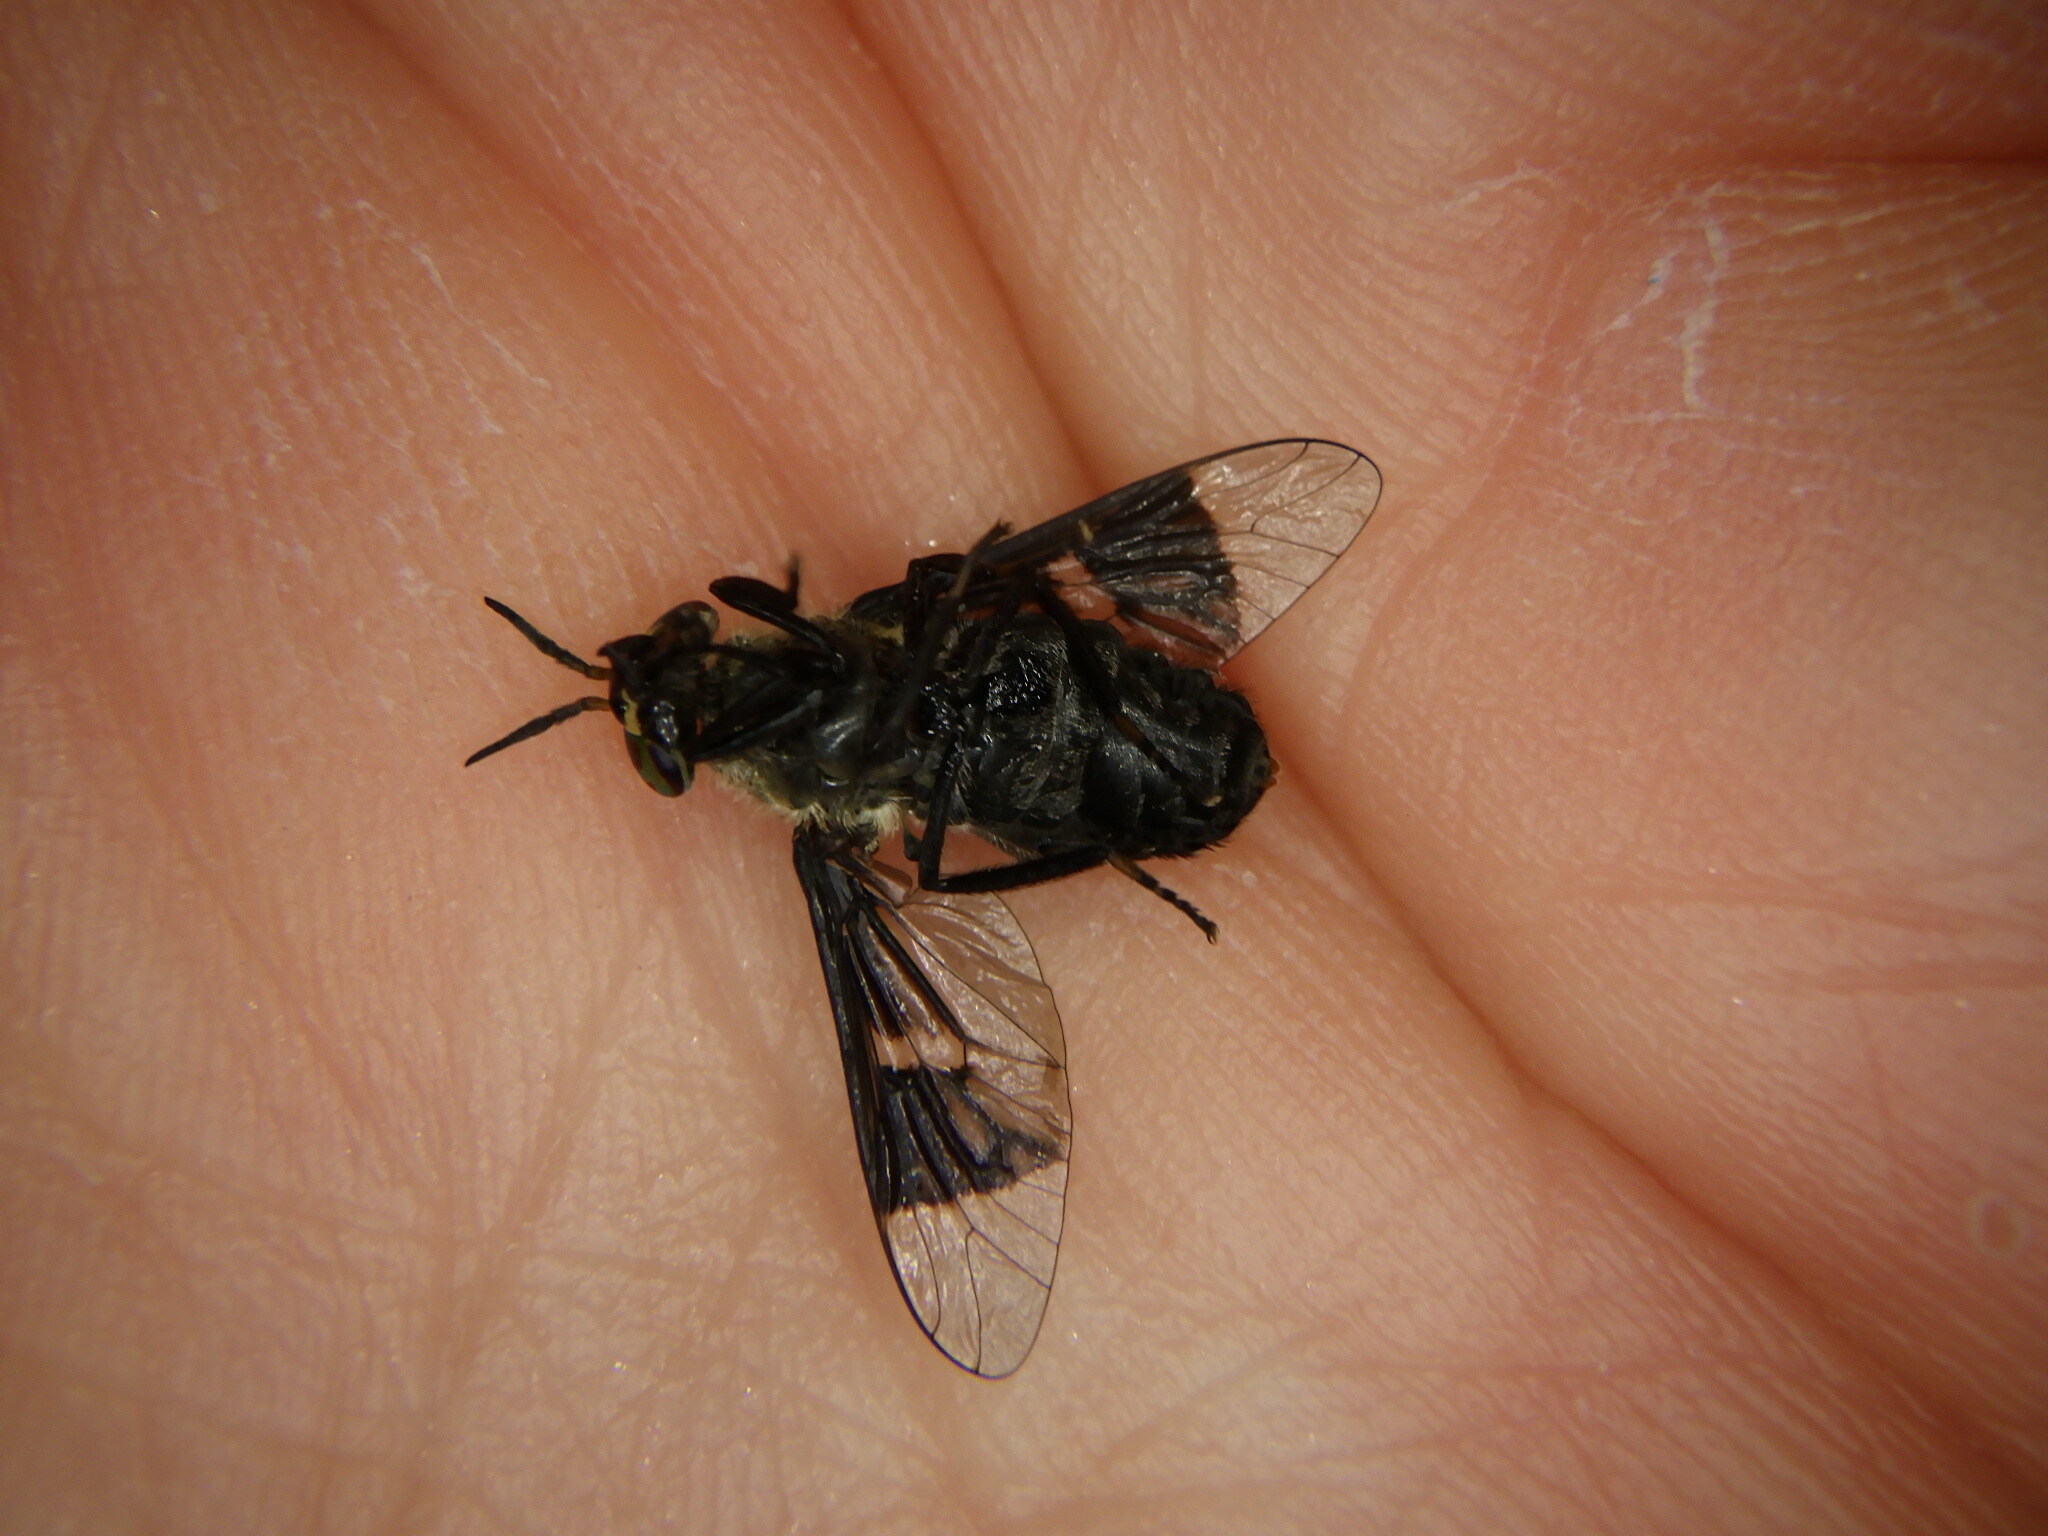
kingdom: Animalia
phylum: Arthropoda
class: Insecta
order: Diptera
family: Tabanidae
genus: Chrysops
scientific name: Chrysops carbonarius
